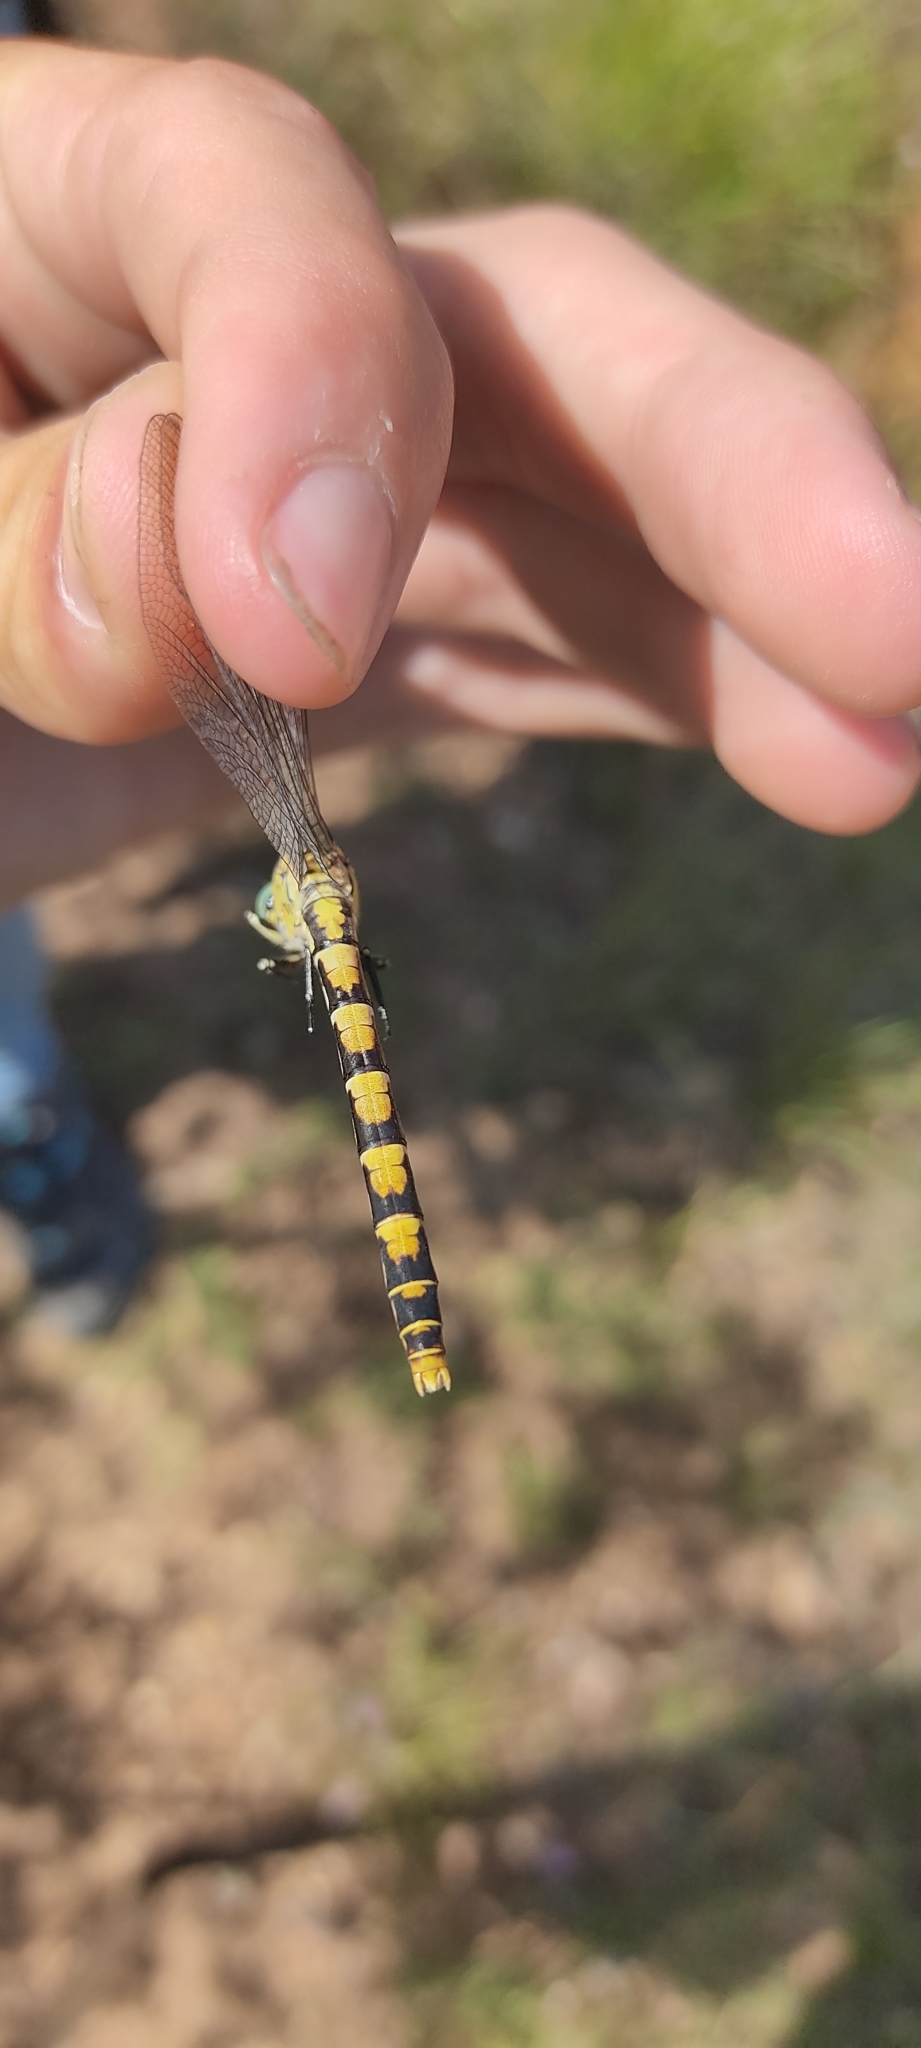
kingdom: Animalia
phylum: Arthropoda
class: Insecta
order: Odonata
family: Gomphidae
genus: Onychogomphus
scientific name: Onychogomphus forcipatus
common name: Small pincertail
